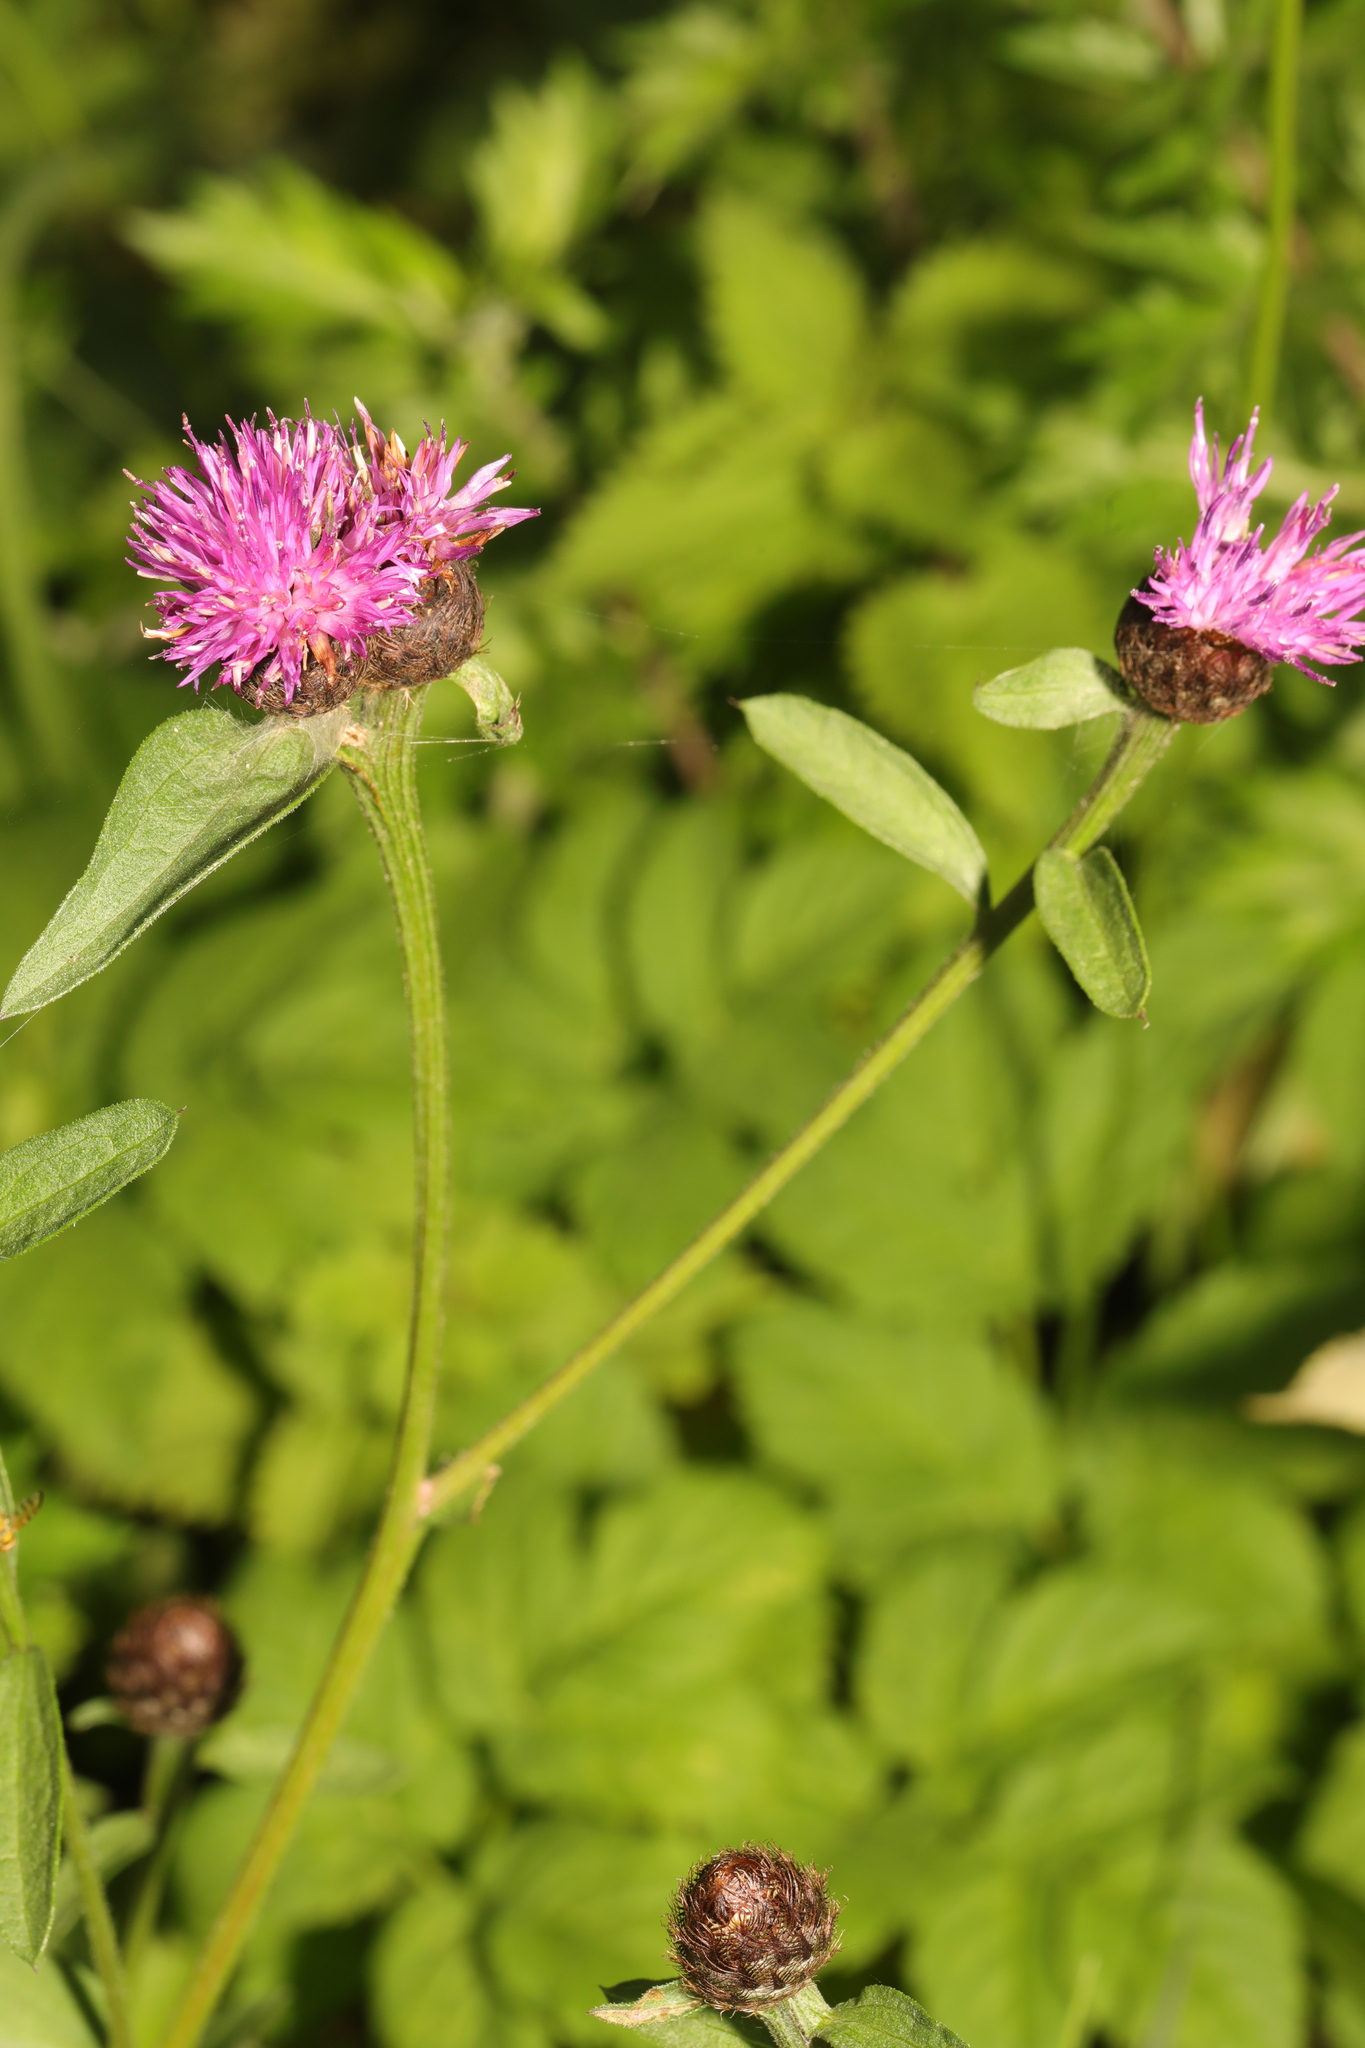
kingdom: Plantae
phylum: Tracheophyta
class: Magnoliopsida
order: Asterales
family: Asteraceae
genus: Centaurea
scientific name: Centaurea nigra
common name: Lesser knapweed
